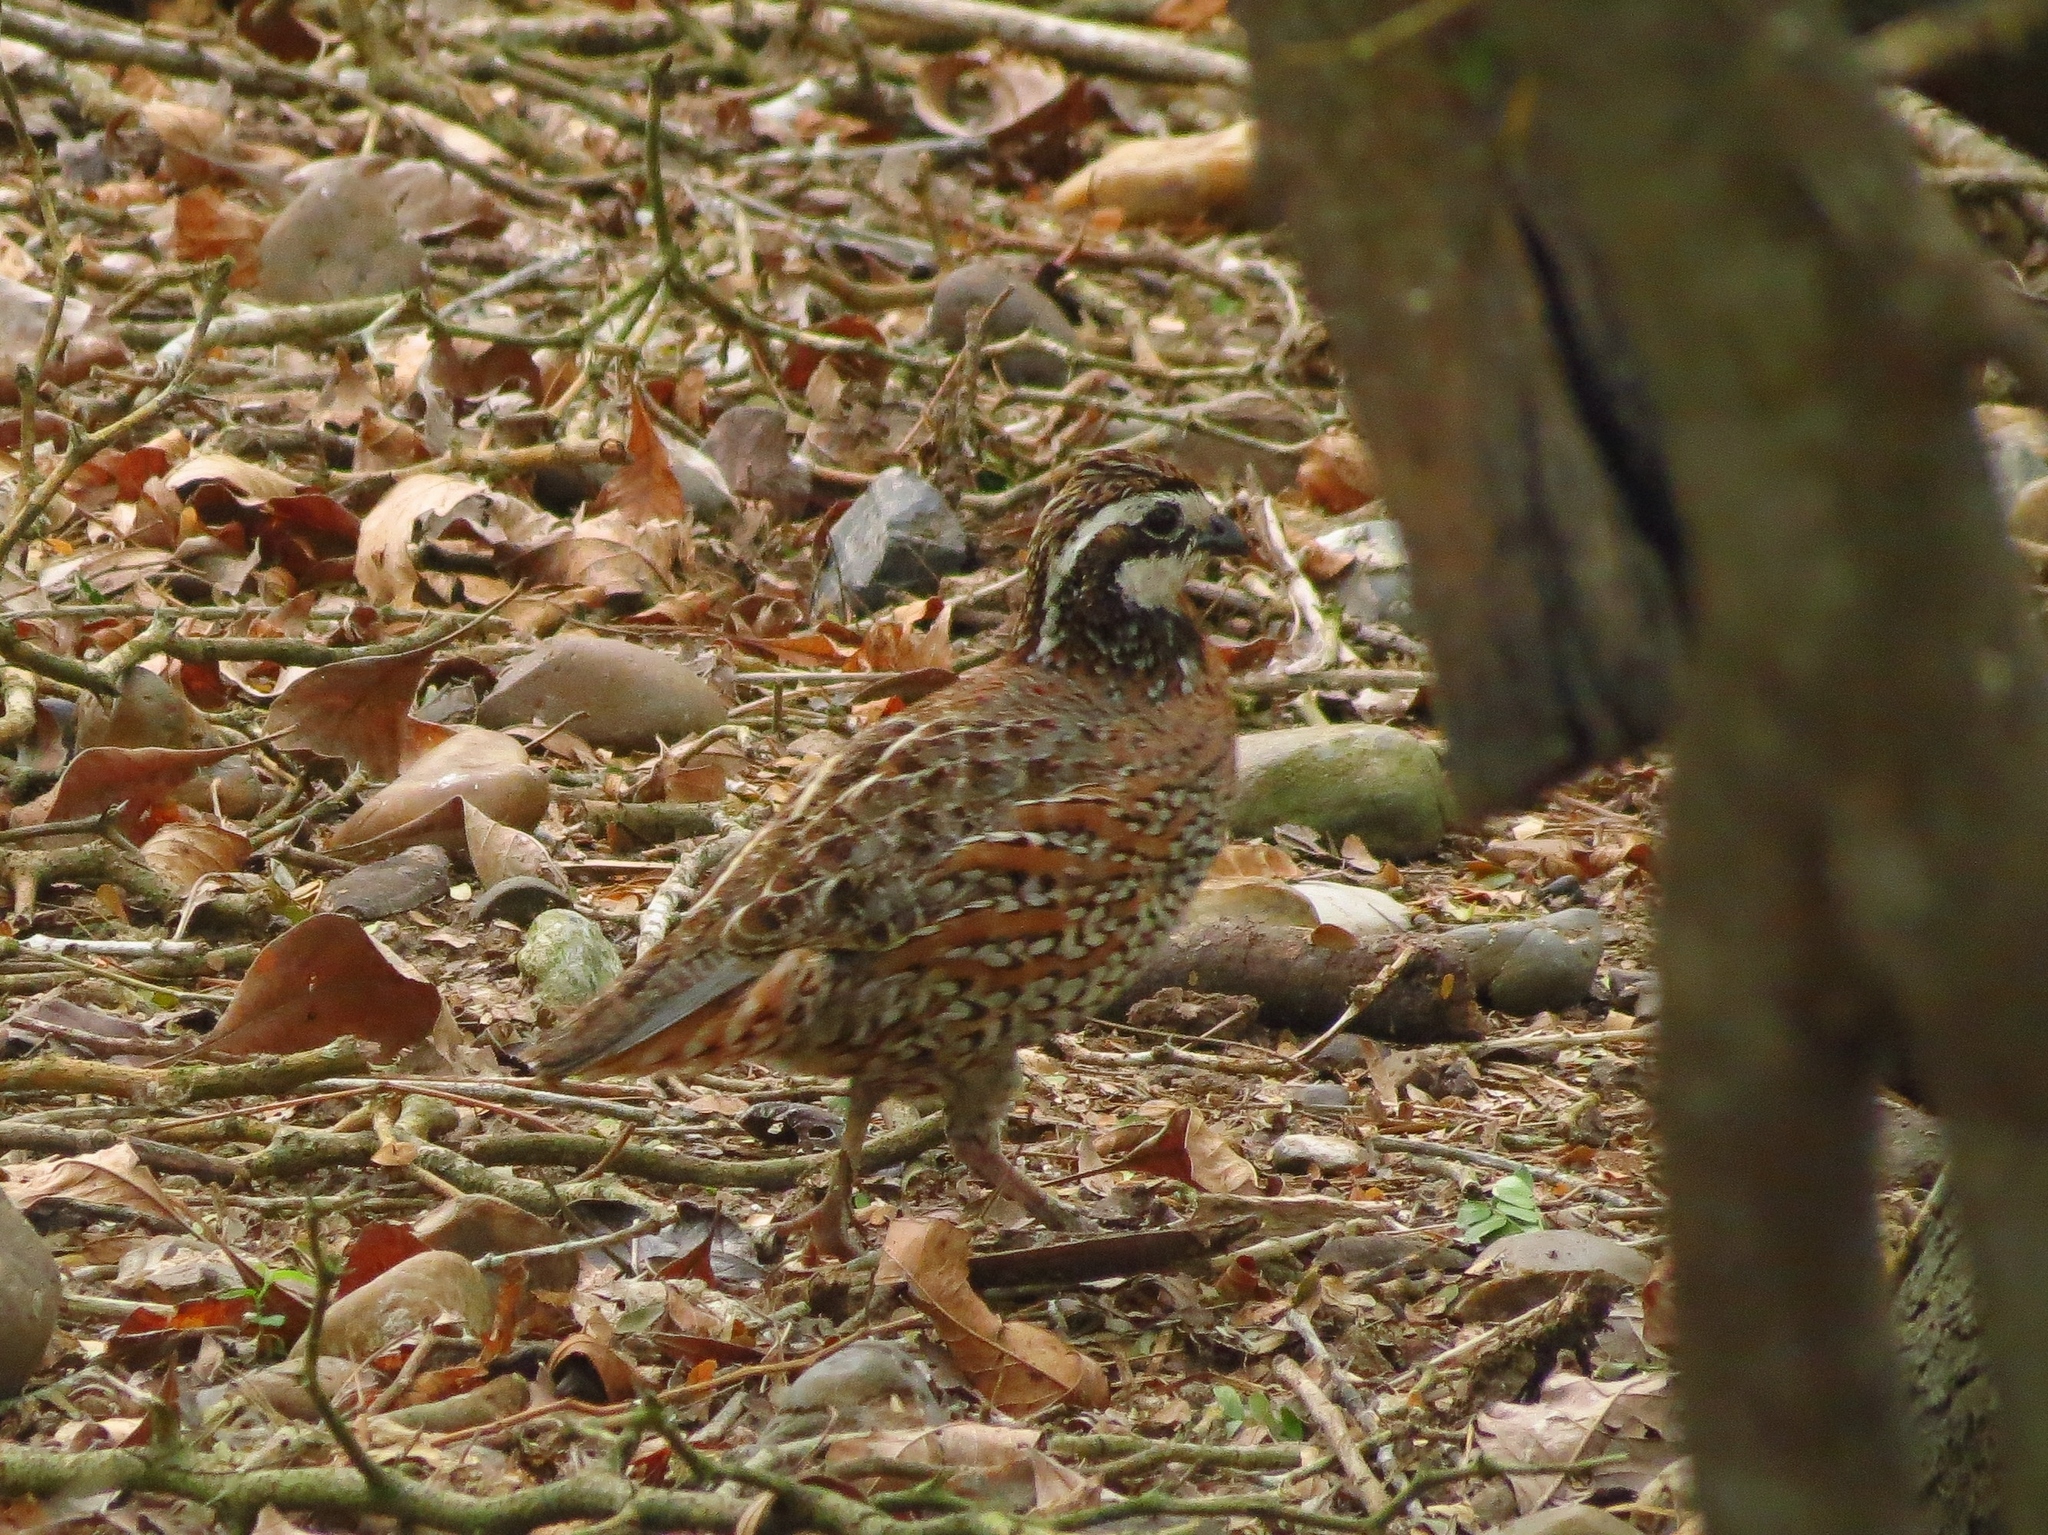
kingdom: Animalia
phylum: Chordata
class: Aves
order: Galliformes
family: Odontophoridae
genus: Colinus
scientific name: Colinus virginianus
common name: Northern bobwhite
